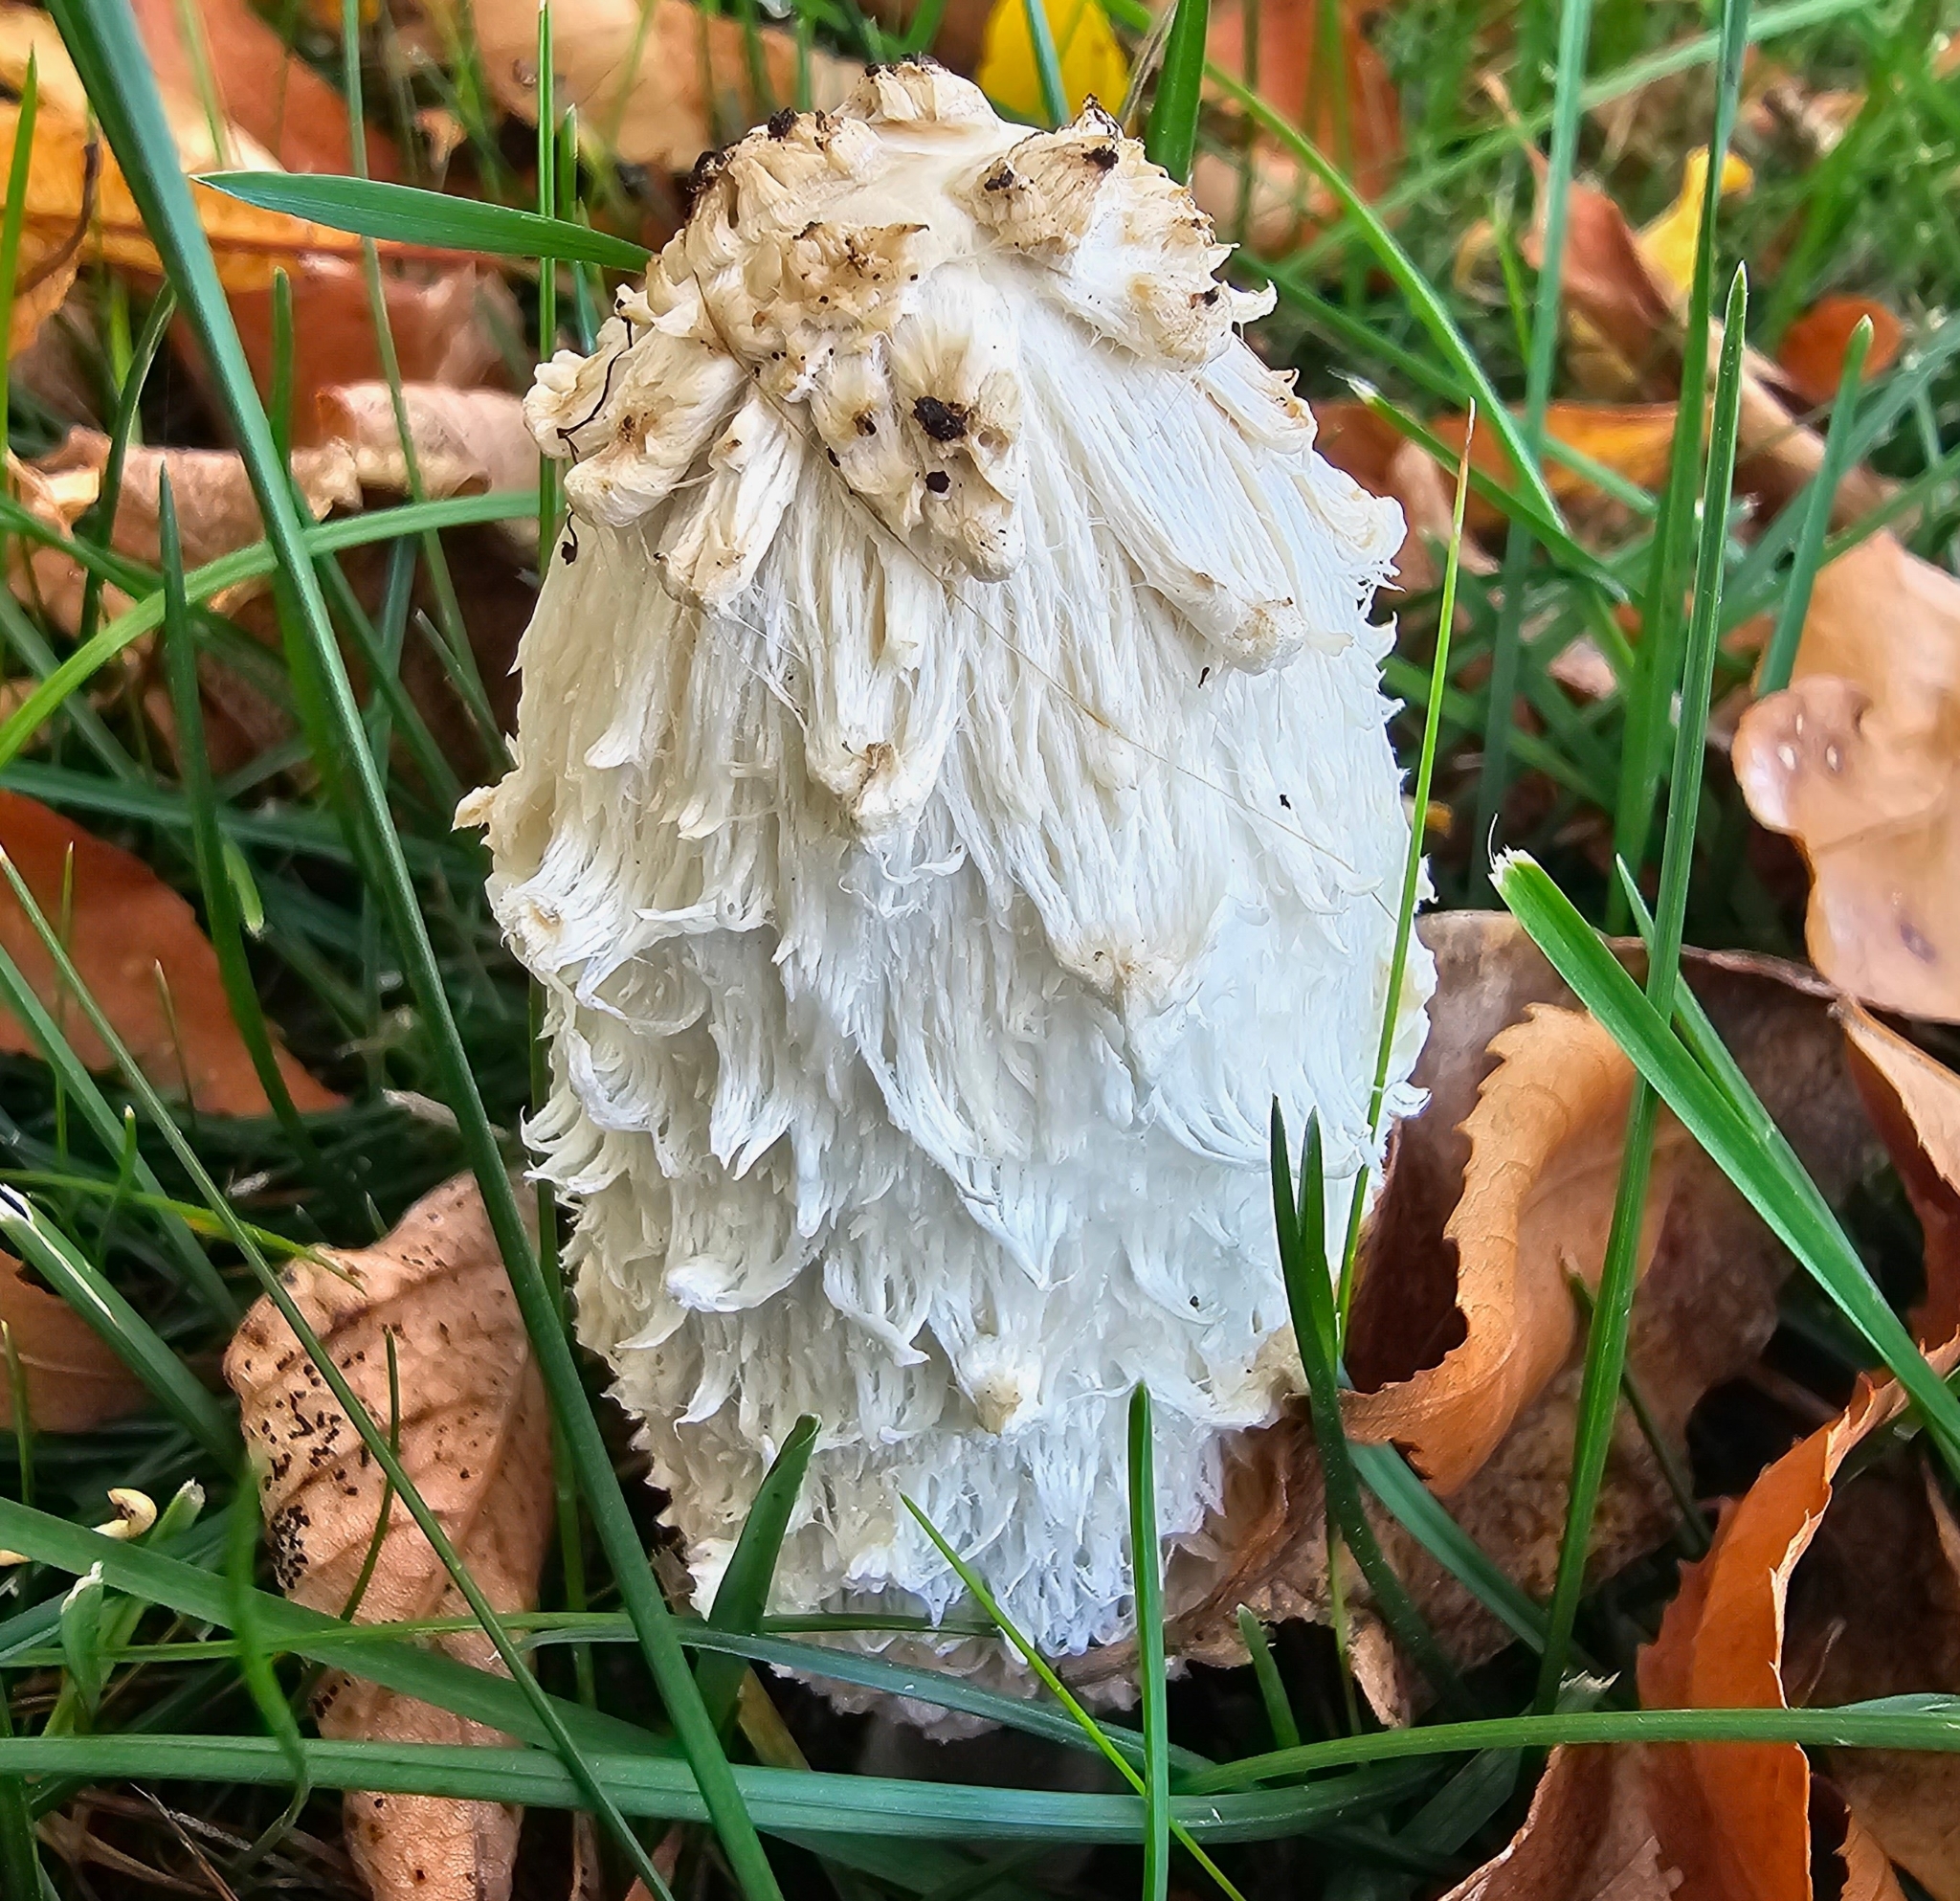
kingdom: Fungi
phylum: Basidiomycota
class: Agaricomycetes
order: Agaricales
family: Agaricaceae
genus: Coprinus
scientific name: Coprinus comatus
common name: Lawyer's wig
